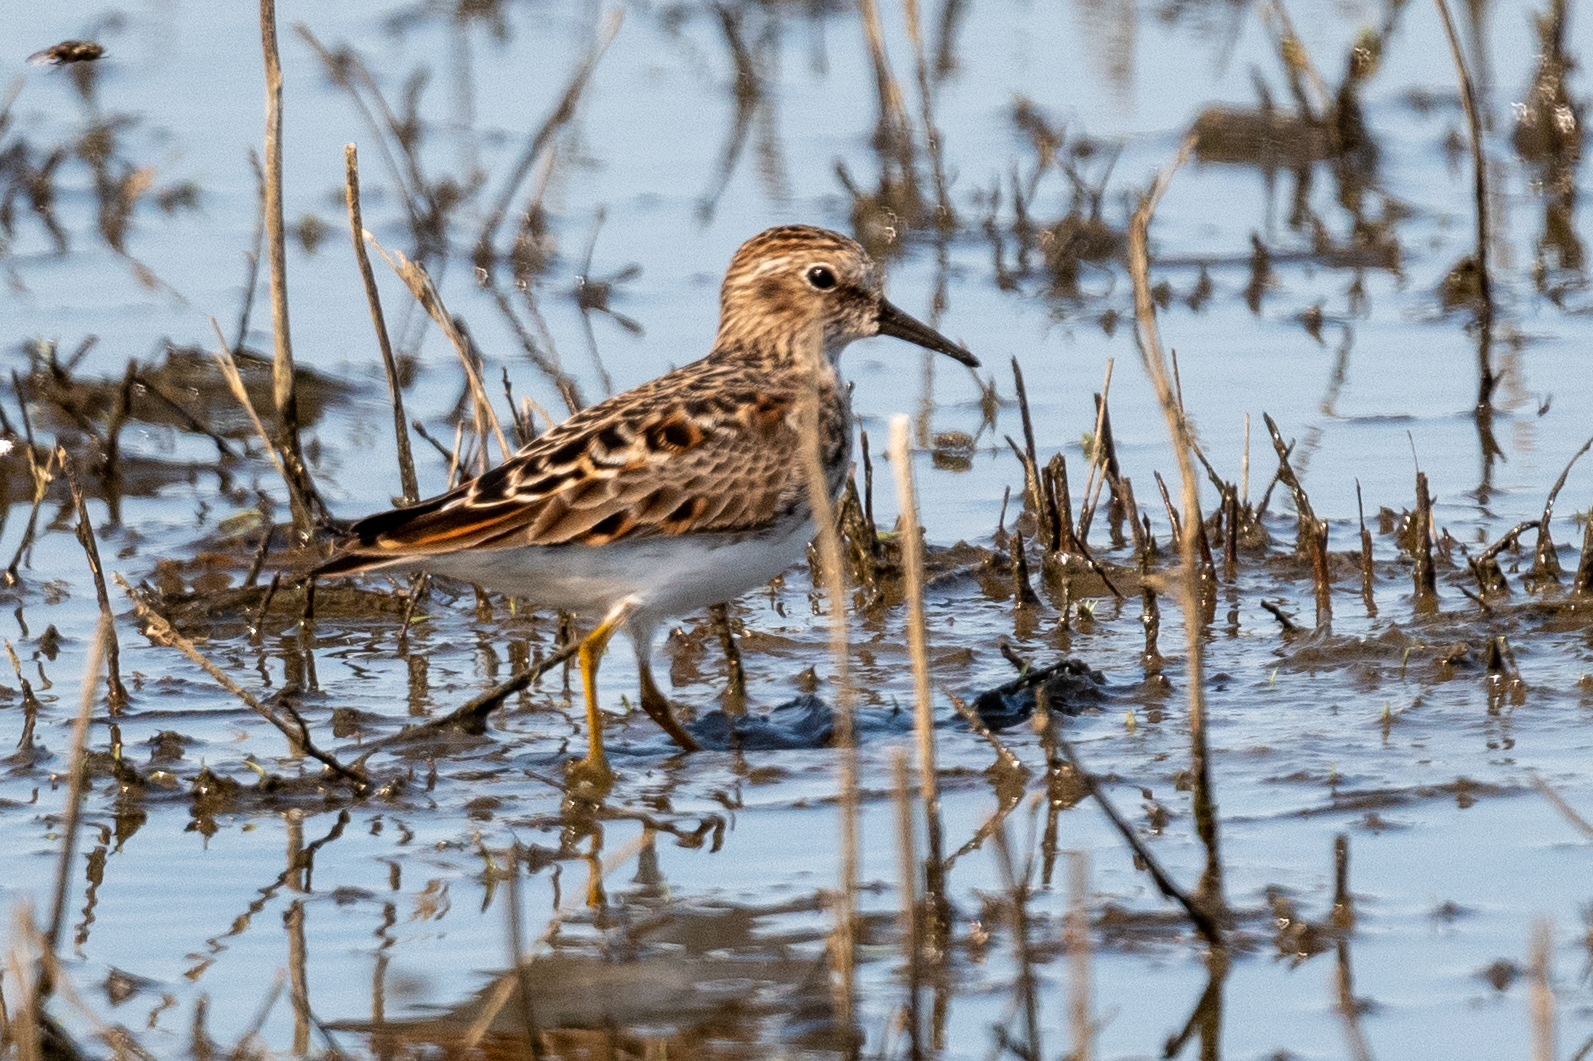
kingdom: Animalia
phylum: Chordata
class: Aves
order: Charadriiformes
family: Scolopacidae
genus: Calidris
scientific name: Calidris minutilla
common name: Least sandpiper
